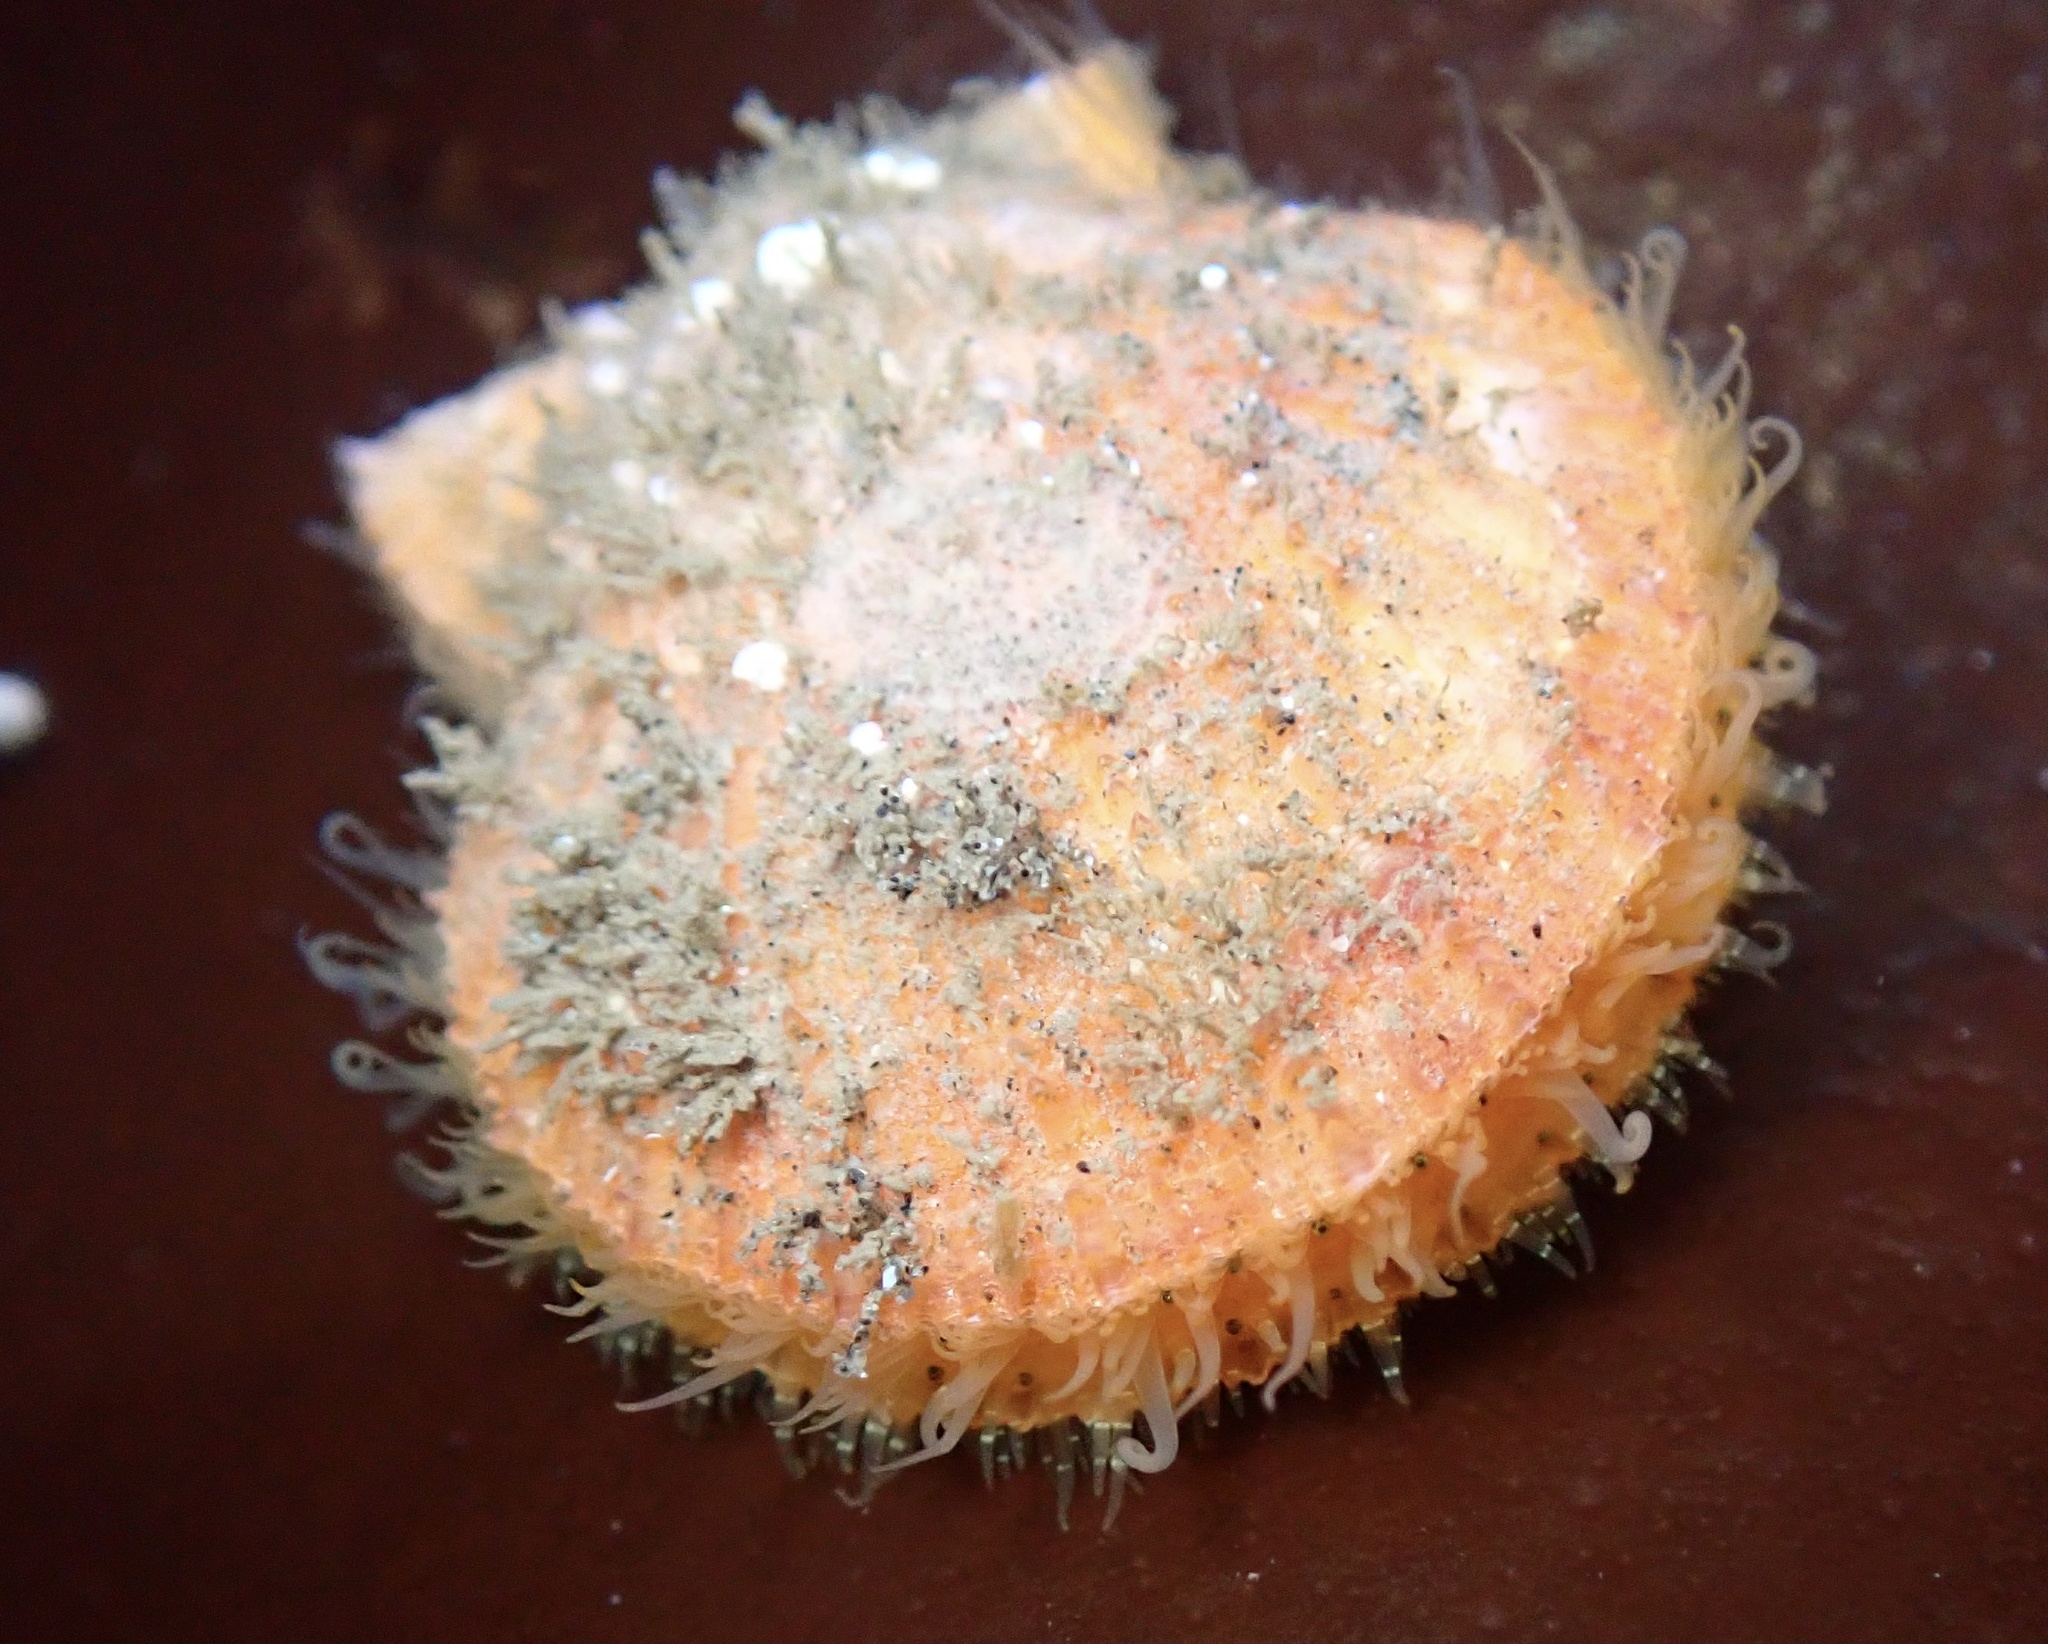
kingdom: Animalia
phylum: Mollusca
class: Bivalvia
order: Pectinida
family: Pectinidae
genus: Crassadoma
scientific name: Crassadoma gigantea
